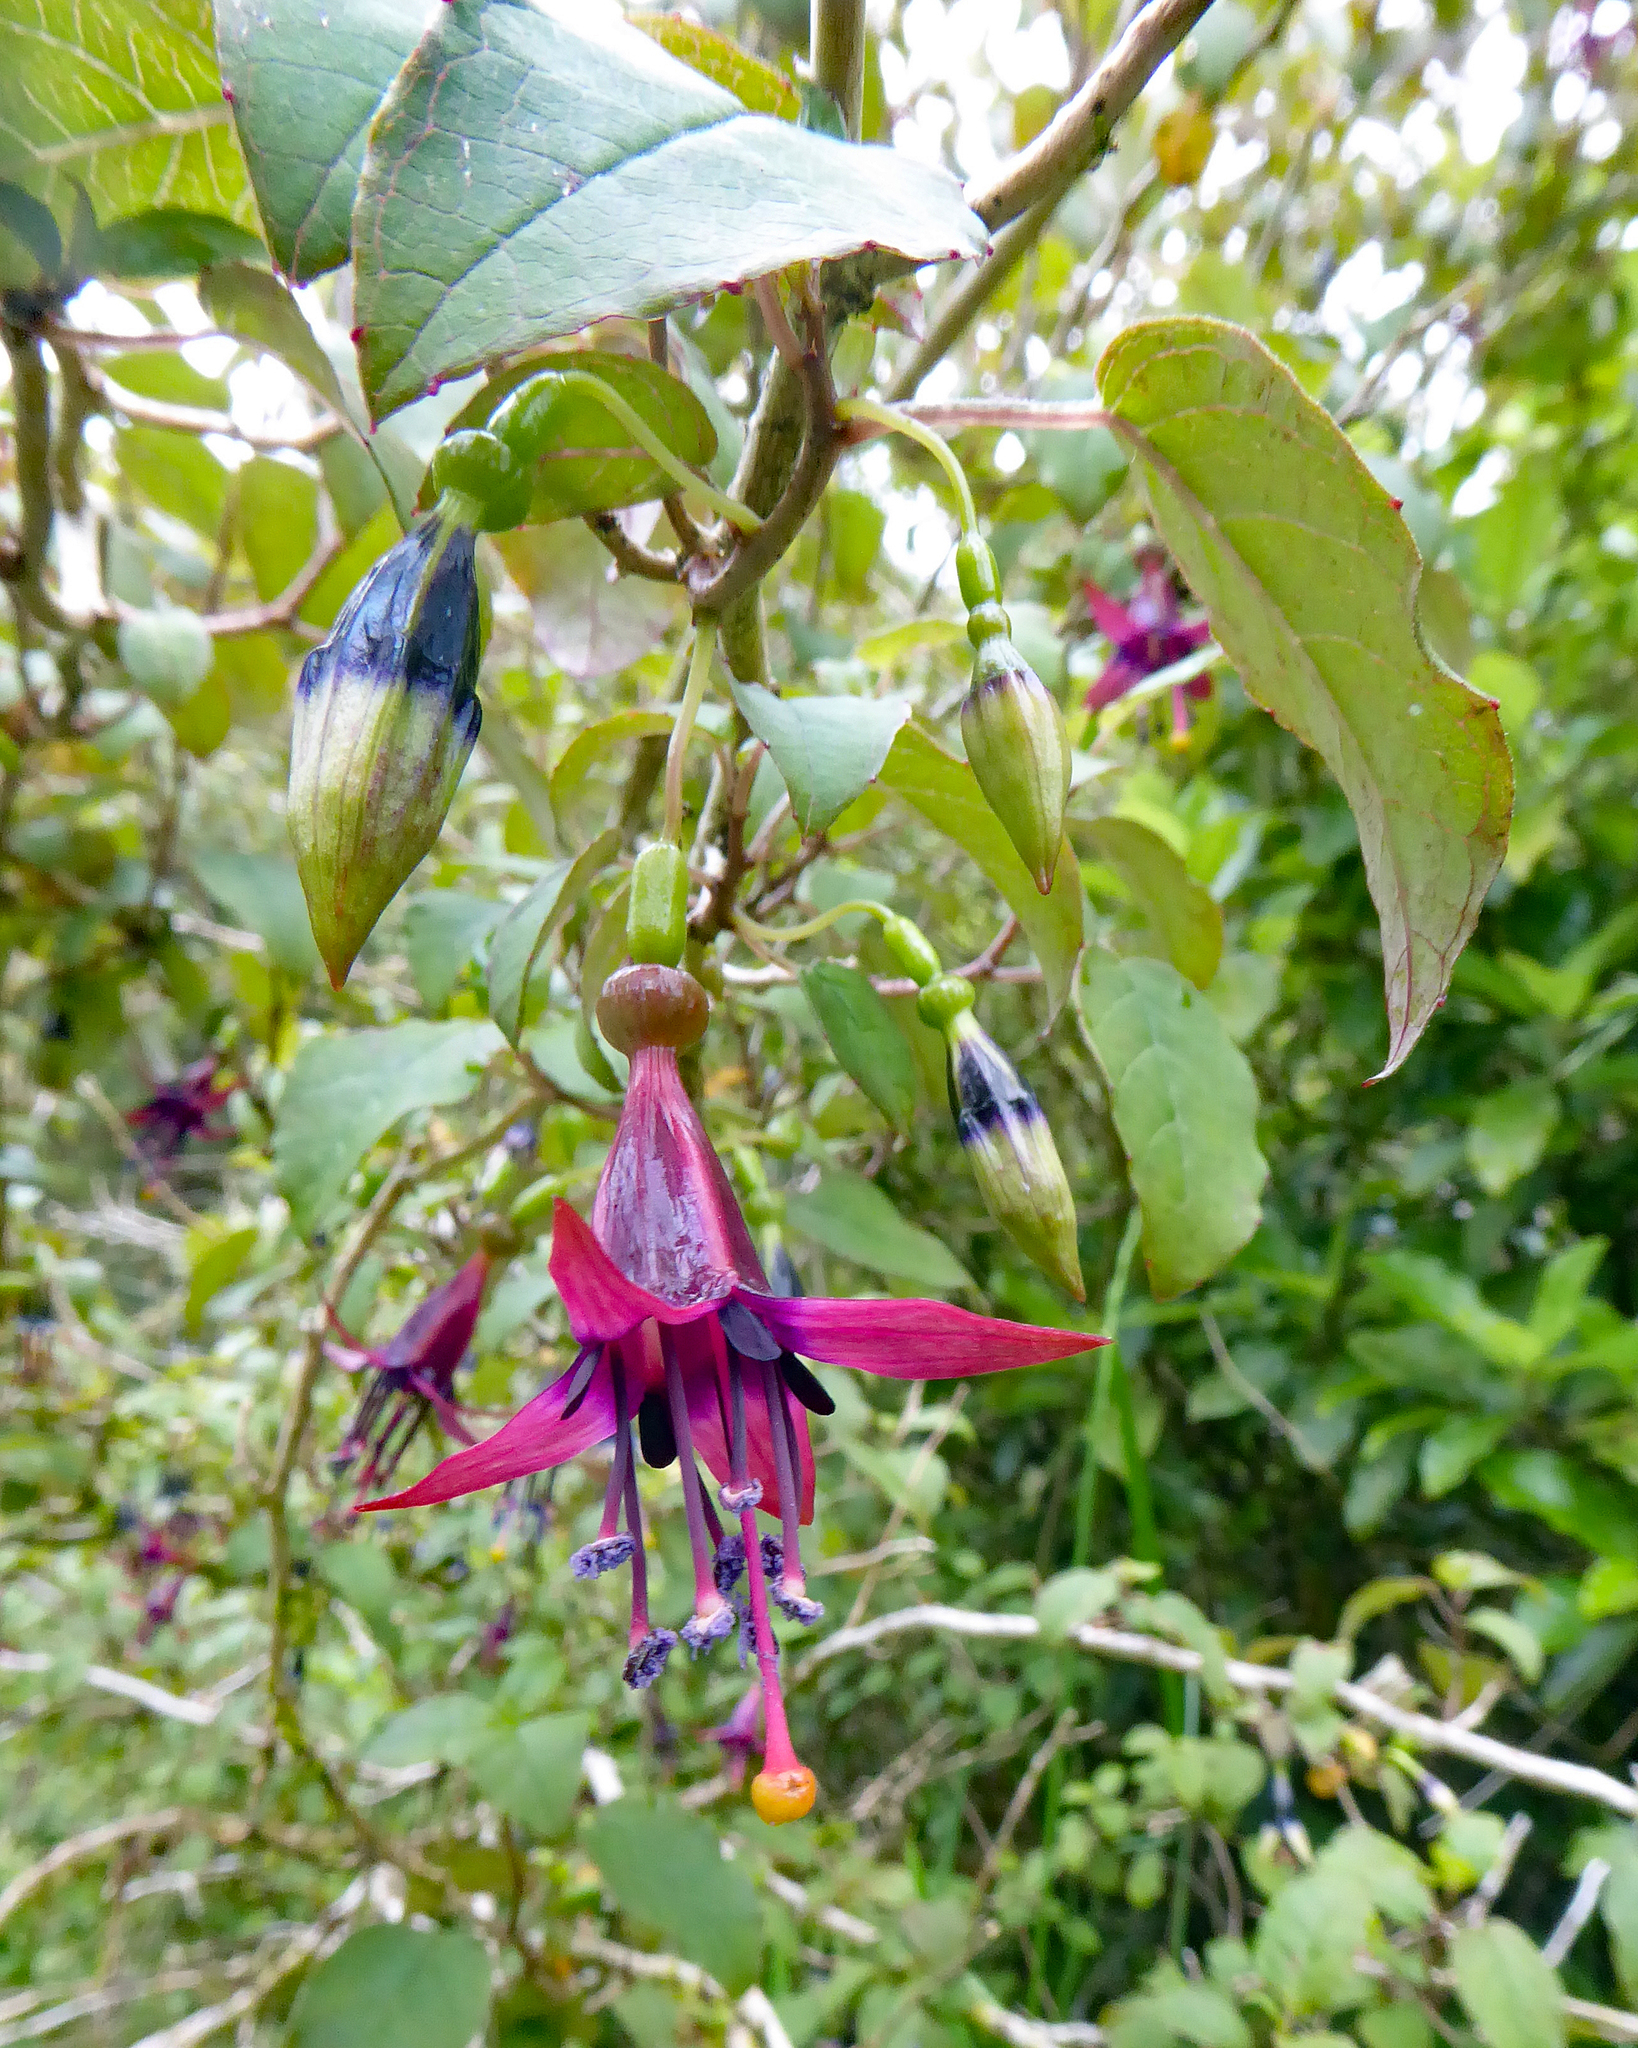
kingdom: Plantae
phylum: Tracheophyta
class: Magnoliopsida
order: Myrtales
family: Onagraceae
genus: Fuchsia
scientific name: Fuchsia colensoi
